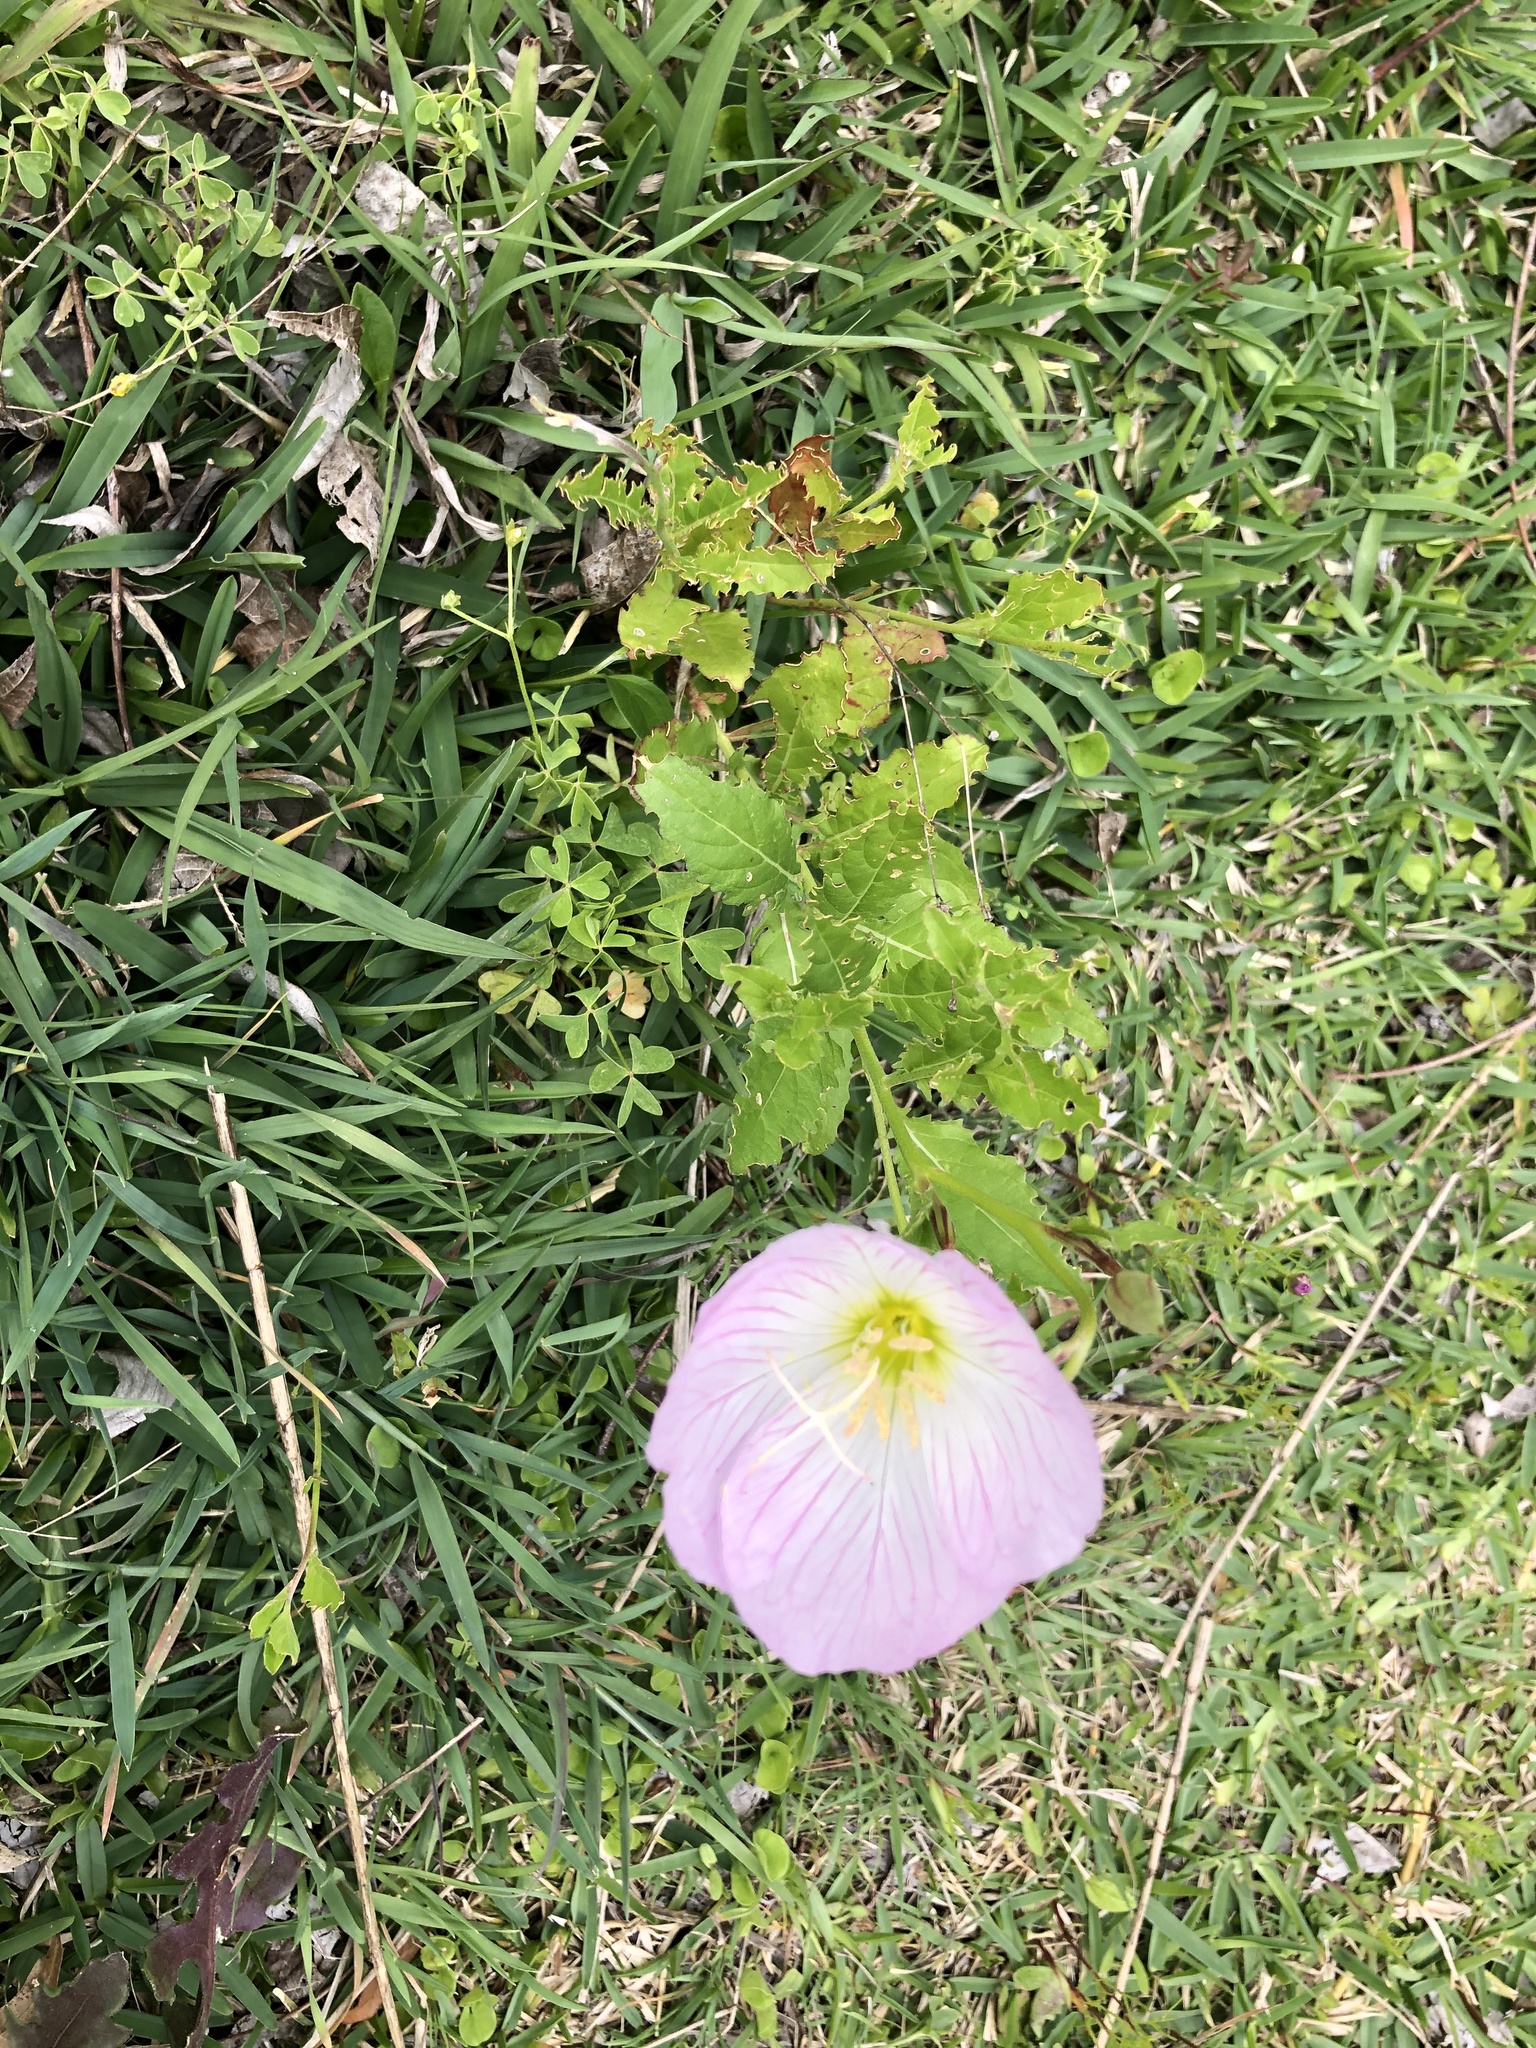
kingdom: Plantae
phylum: Tracheophyta
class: Magnoliopsida
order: Myrtales
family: Onagraceae
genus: Oenothera
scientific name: Oenothera speciosa
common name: White evening-primrose
